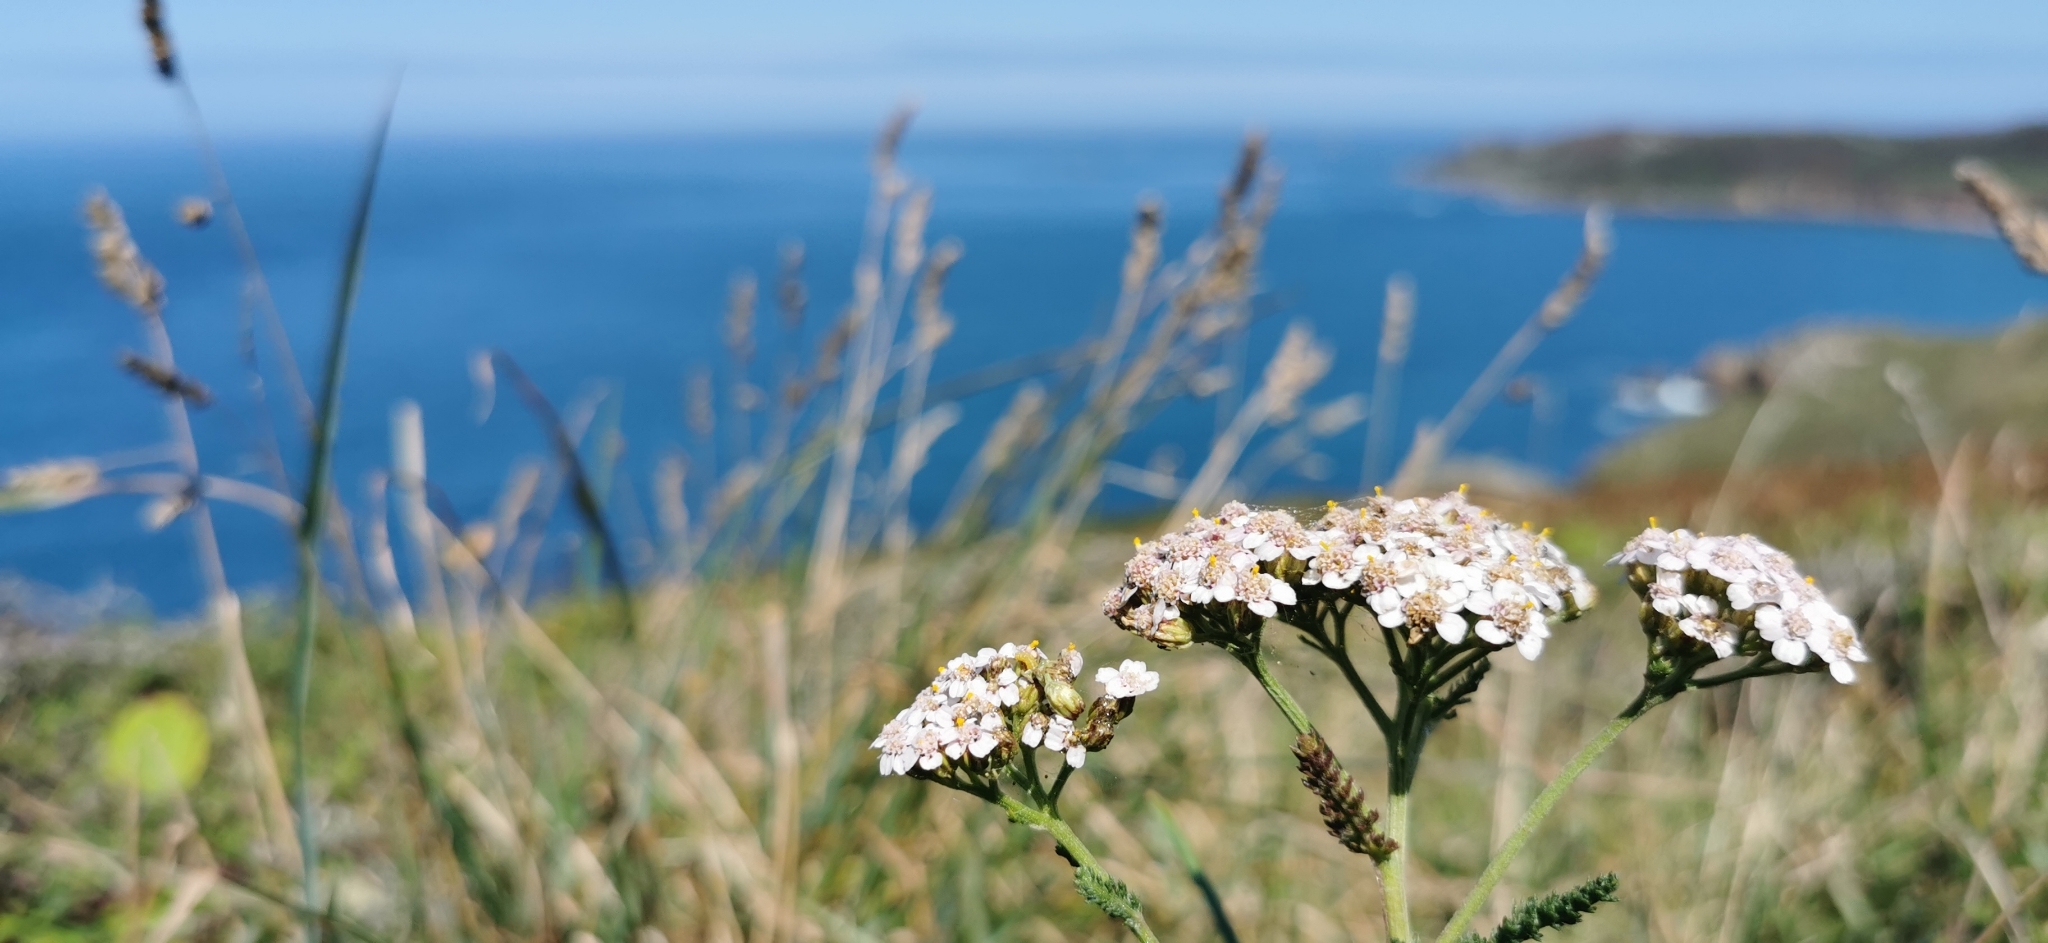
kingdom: Plantae
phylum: Tracheophyta
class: Magnoliopsida
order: Asterales
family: Asteraceae
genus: Achillea
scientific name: Achillea millefolium
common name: Yarrow
